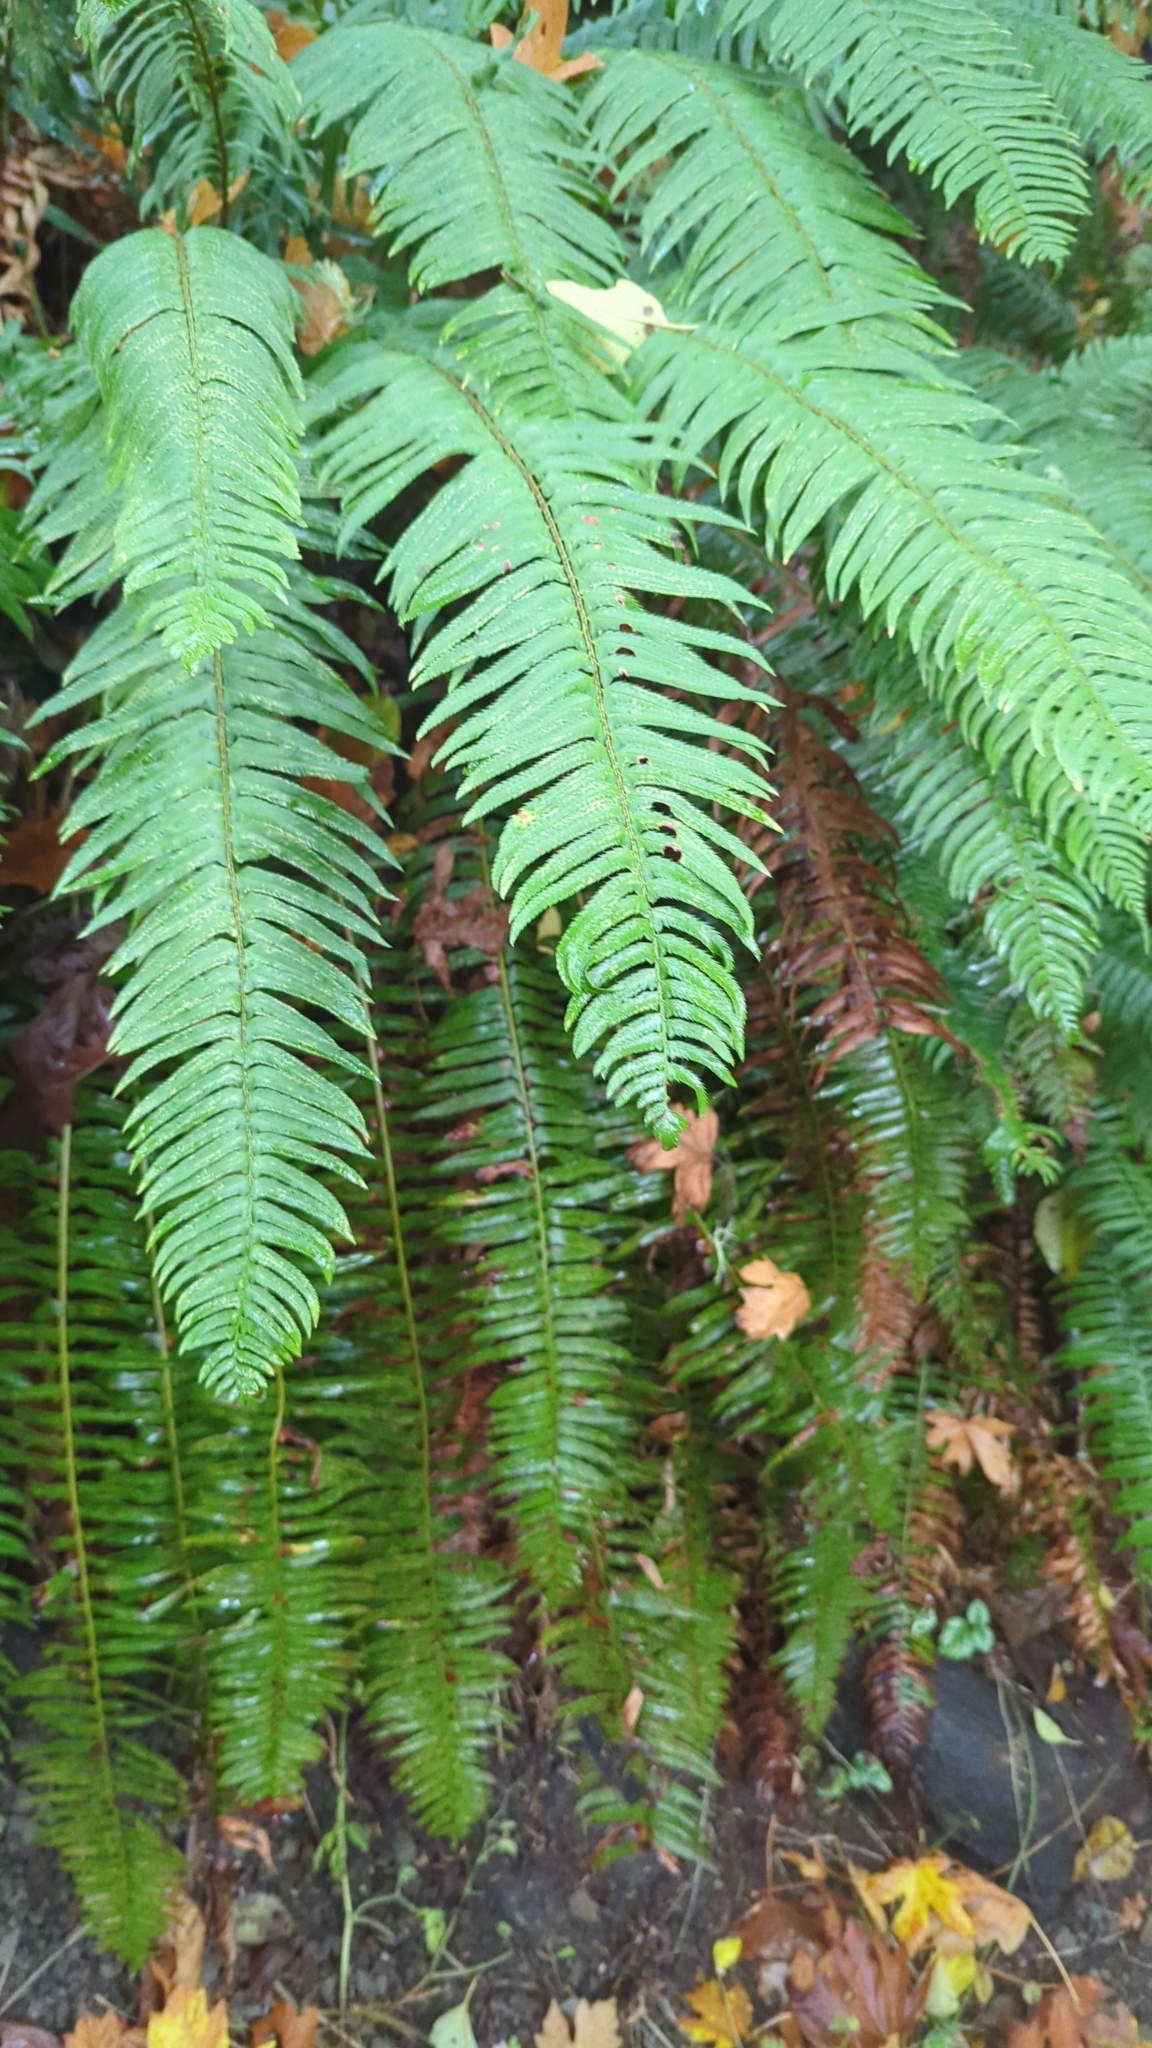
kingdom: Plantae
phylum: Tracheophyta
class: Polypodiopsida
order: Polypodiales
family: Dryopteridaceae
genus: Polystichum
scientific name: Polystichum munitum
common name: Western sword-fern
